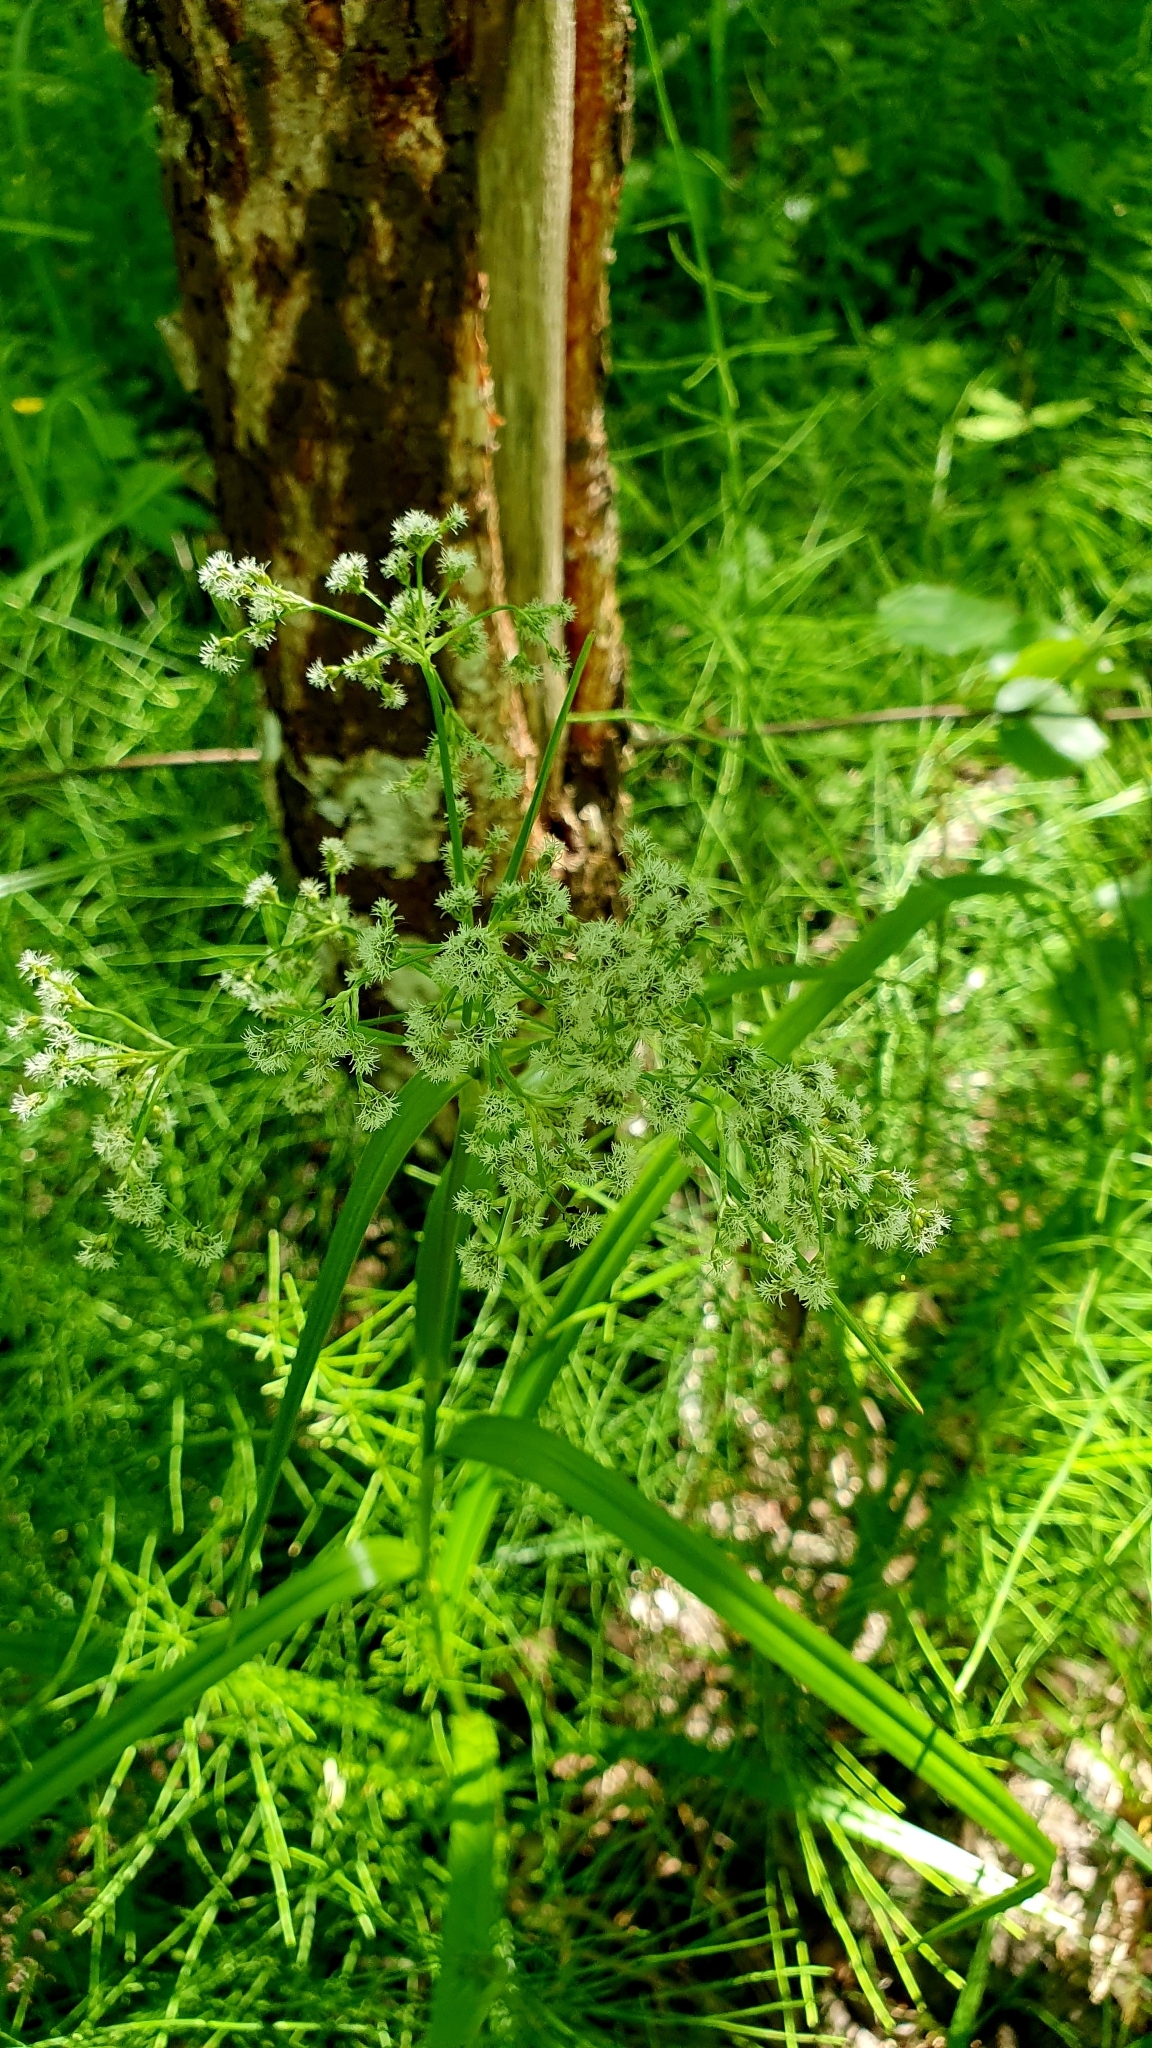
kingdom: Plantae
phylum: Tracheophyta
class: Liliopsida
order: Poales
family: Cyperaceae
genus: Scirpus
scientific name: Scirpus sylvaticus
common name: Wood club-rush
